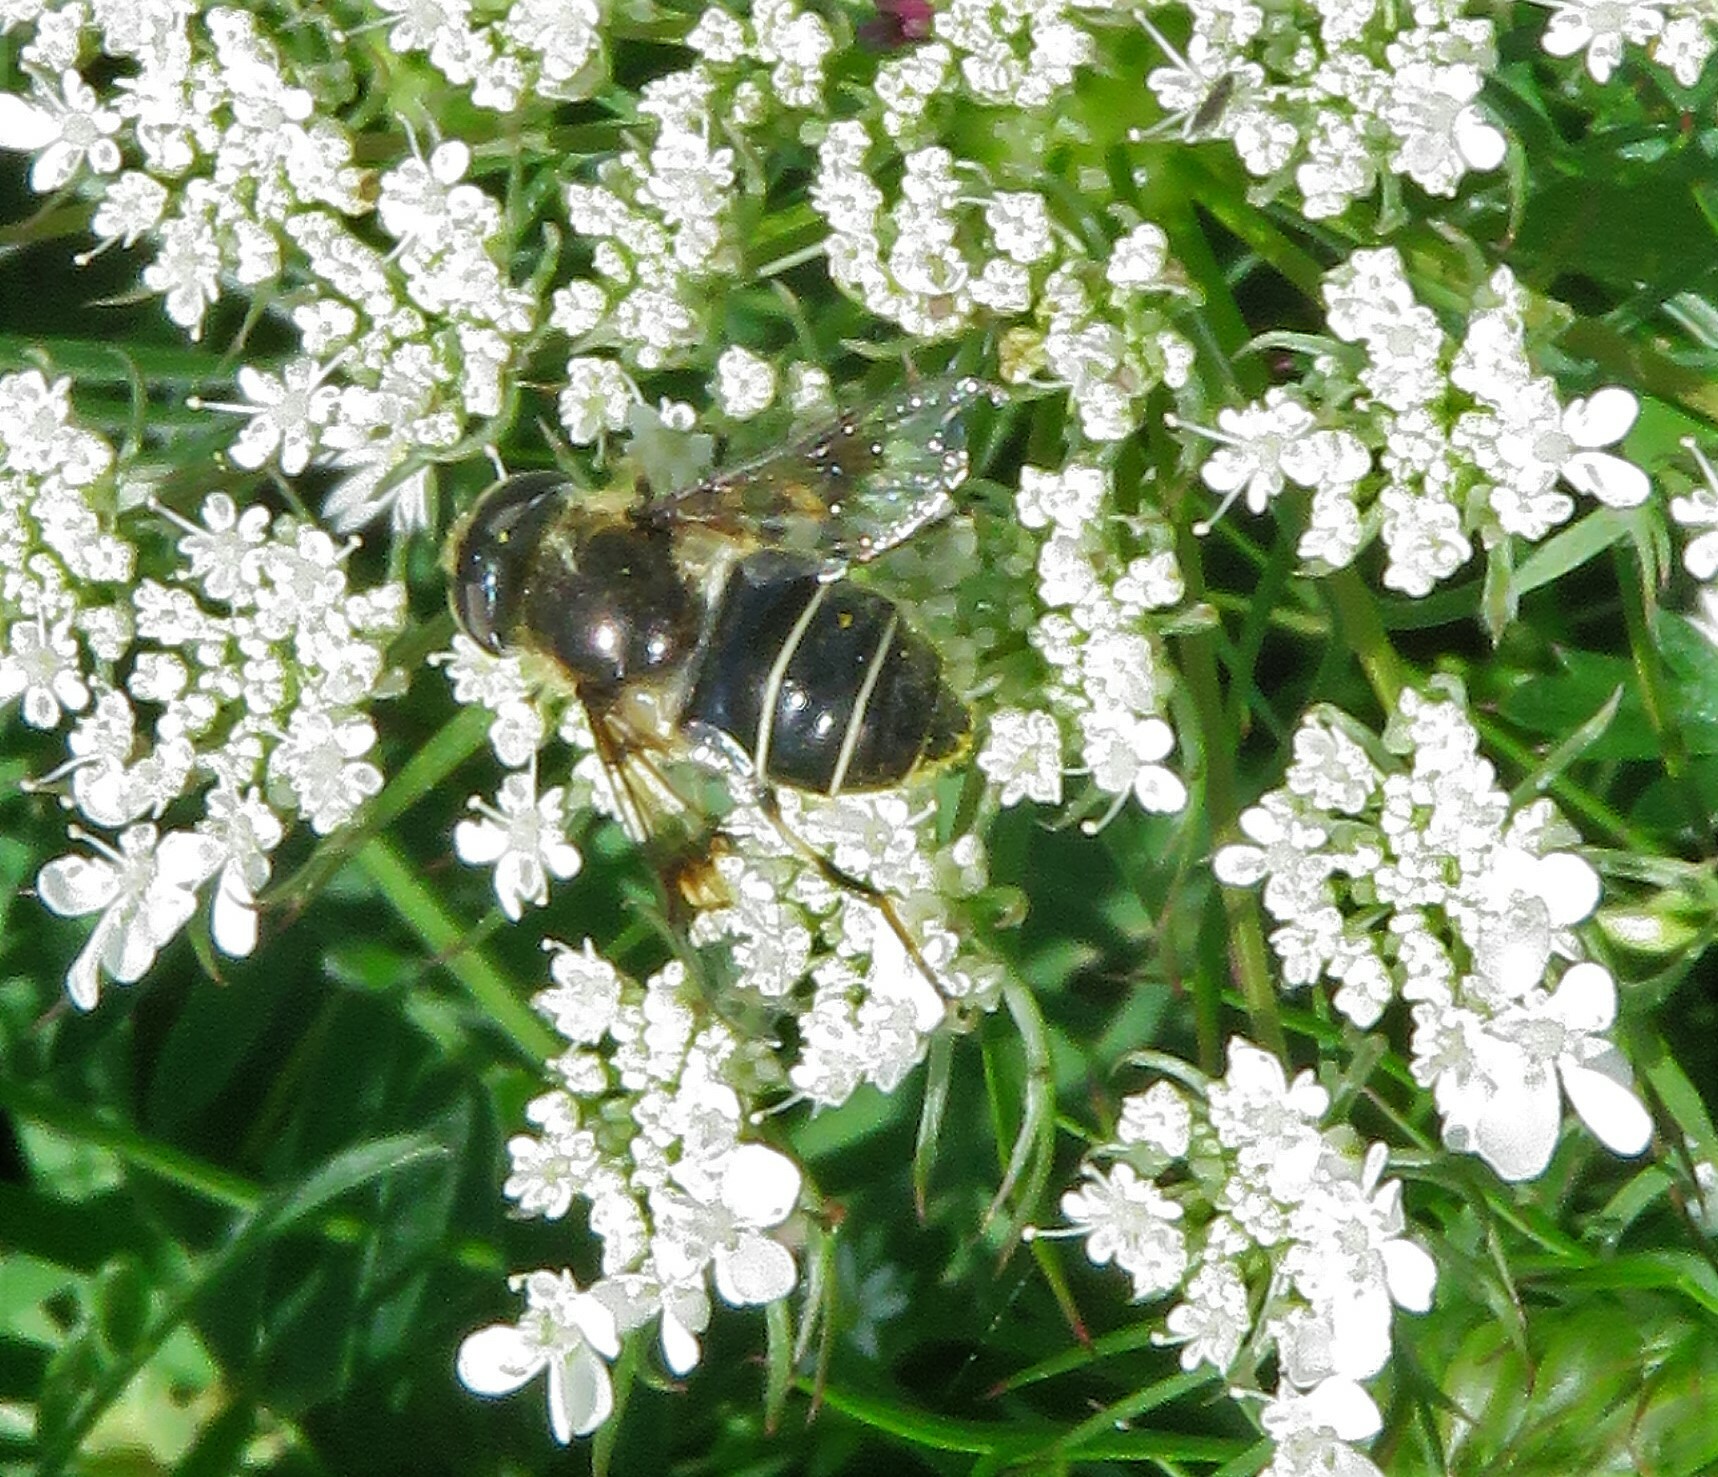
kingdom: Animalia
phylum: Arthropoda
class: Insecta
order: Diptera
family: Syrphidae
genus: Eristalis
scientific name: Eristalis obscura
